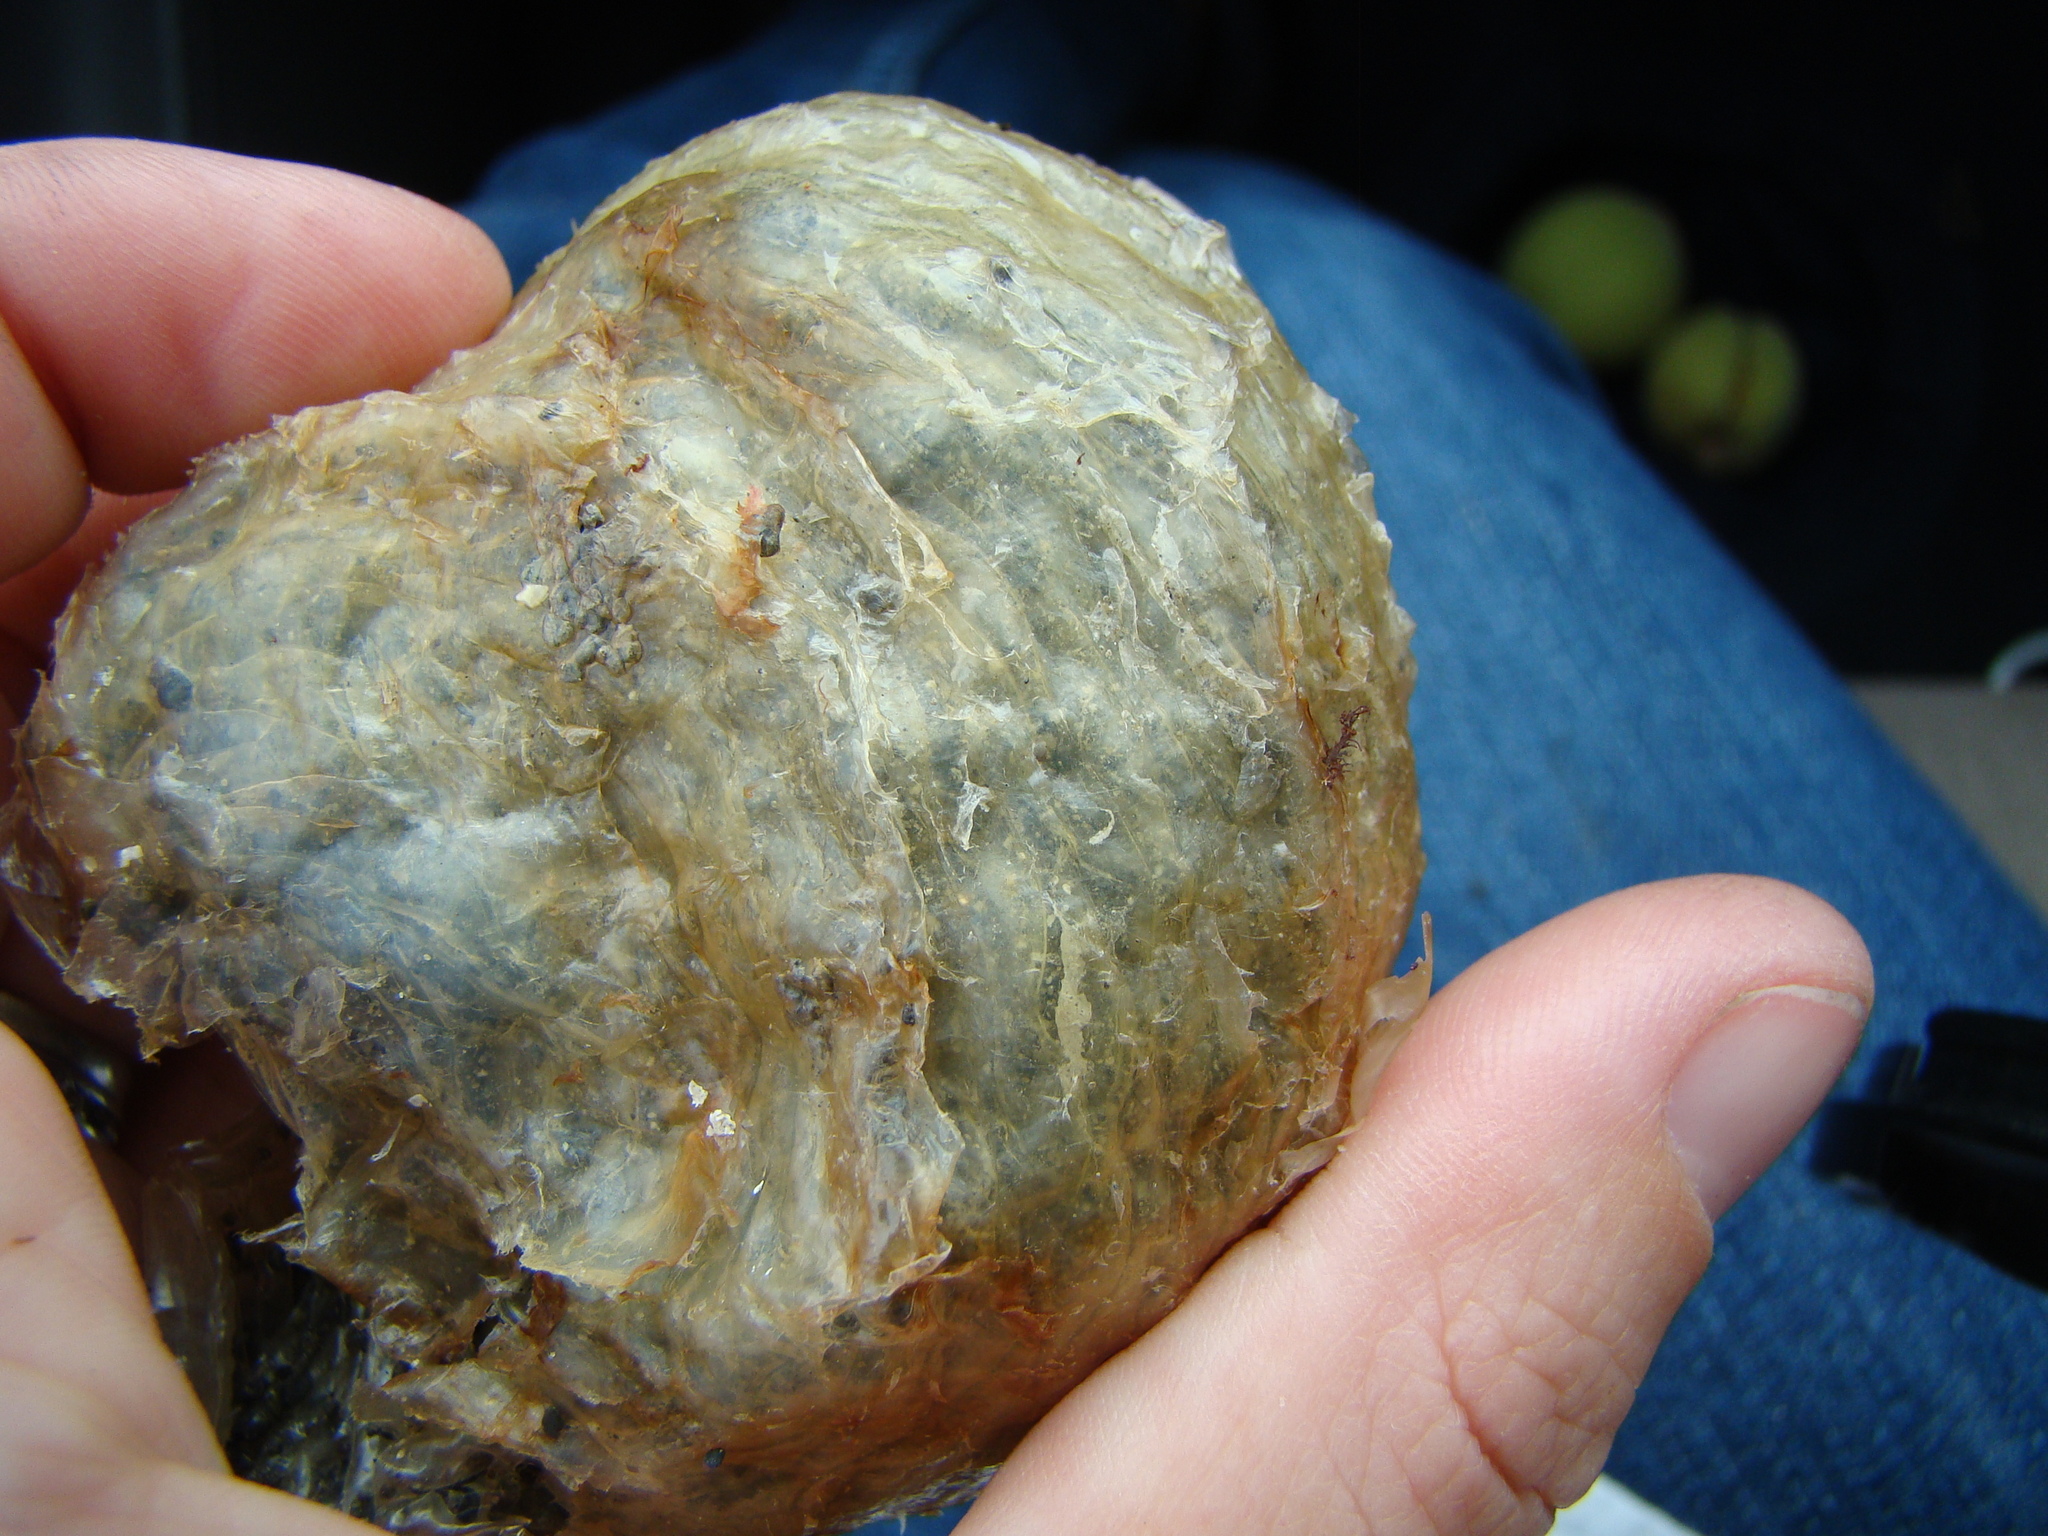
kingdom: Animalia
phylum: Mollusca
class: Gastropoda
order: Littorinimorpha
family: Cymatiidae
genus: Cabestana
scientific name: Cabestana spengleri
